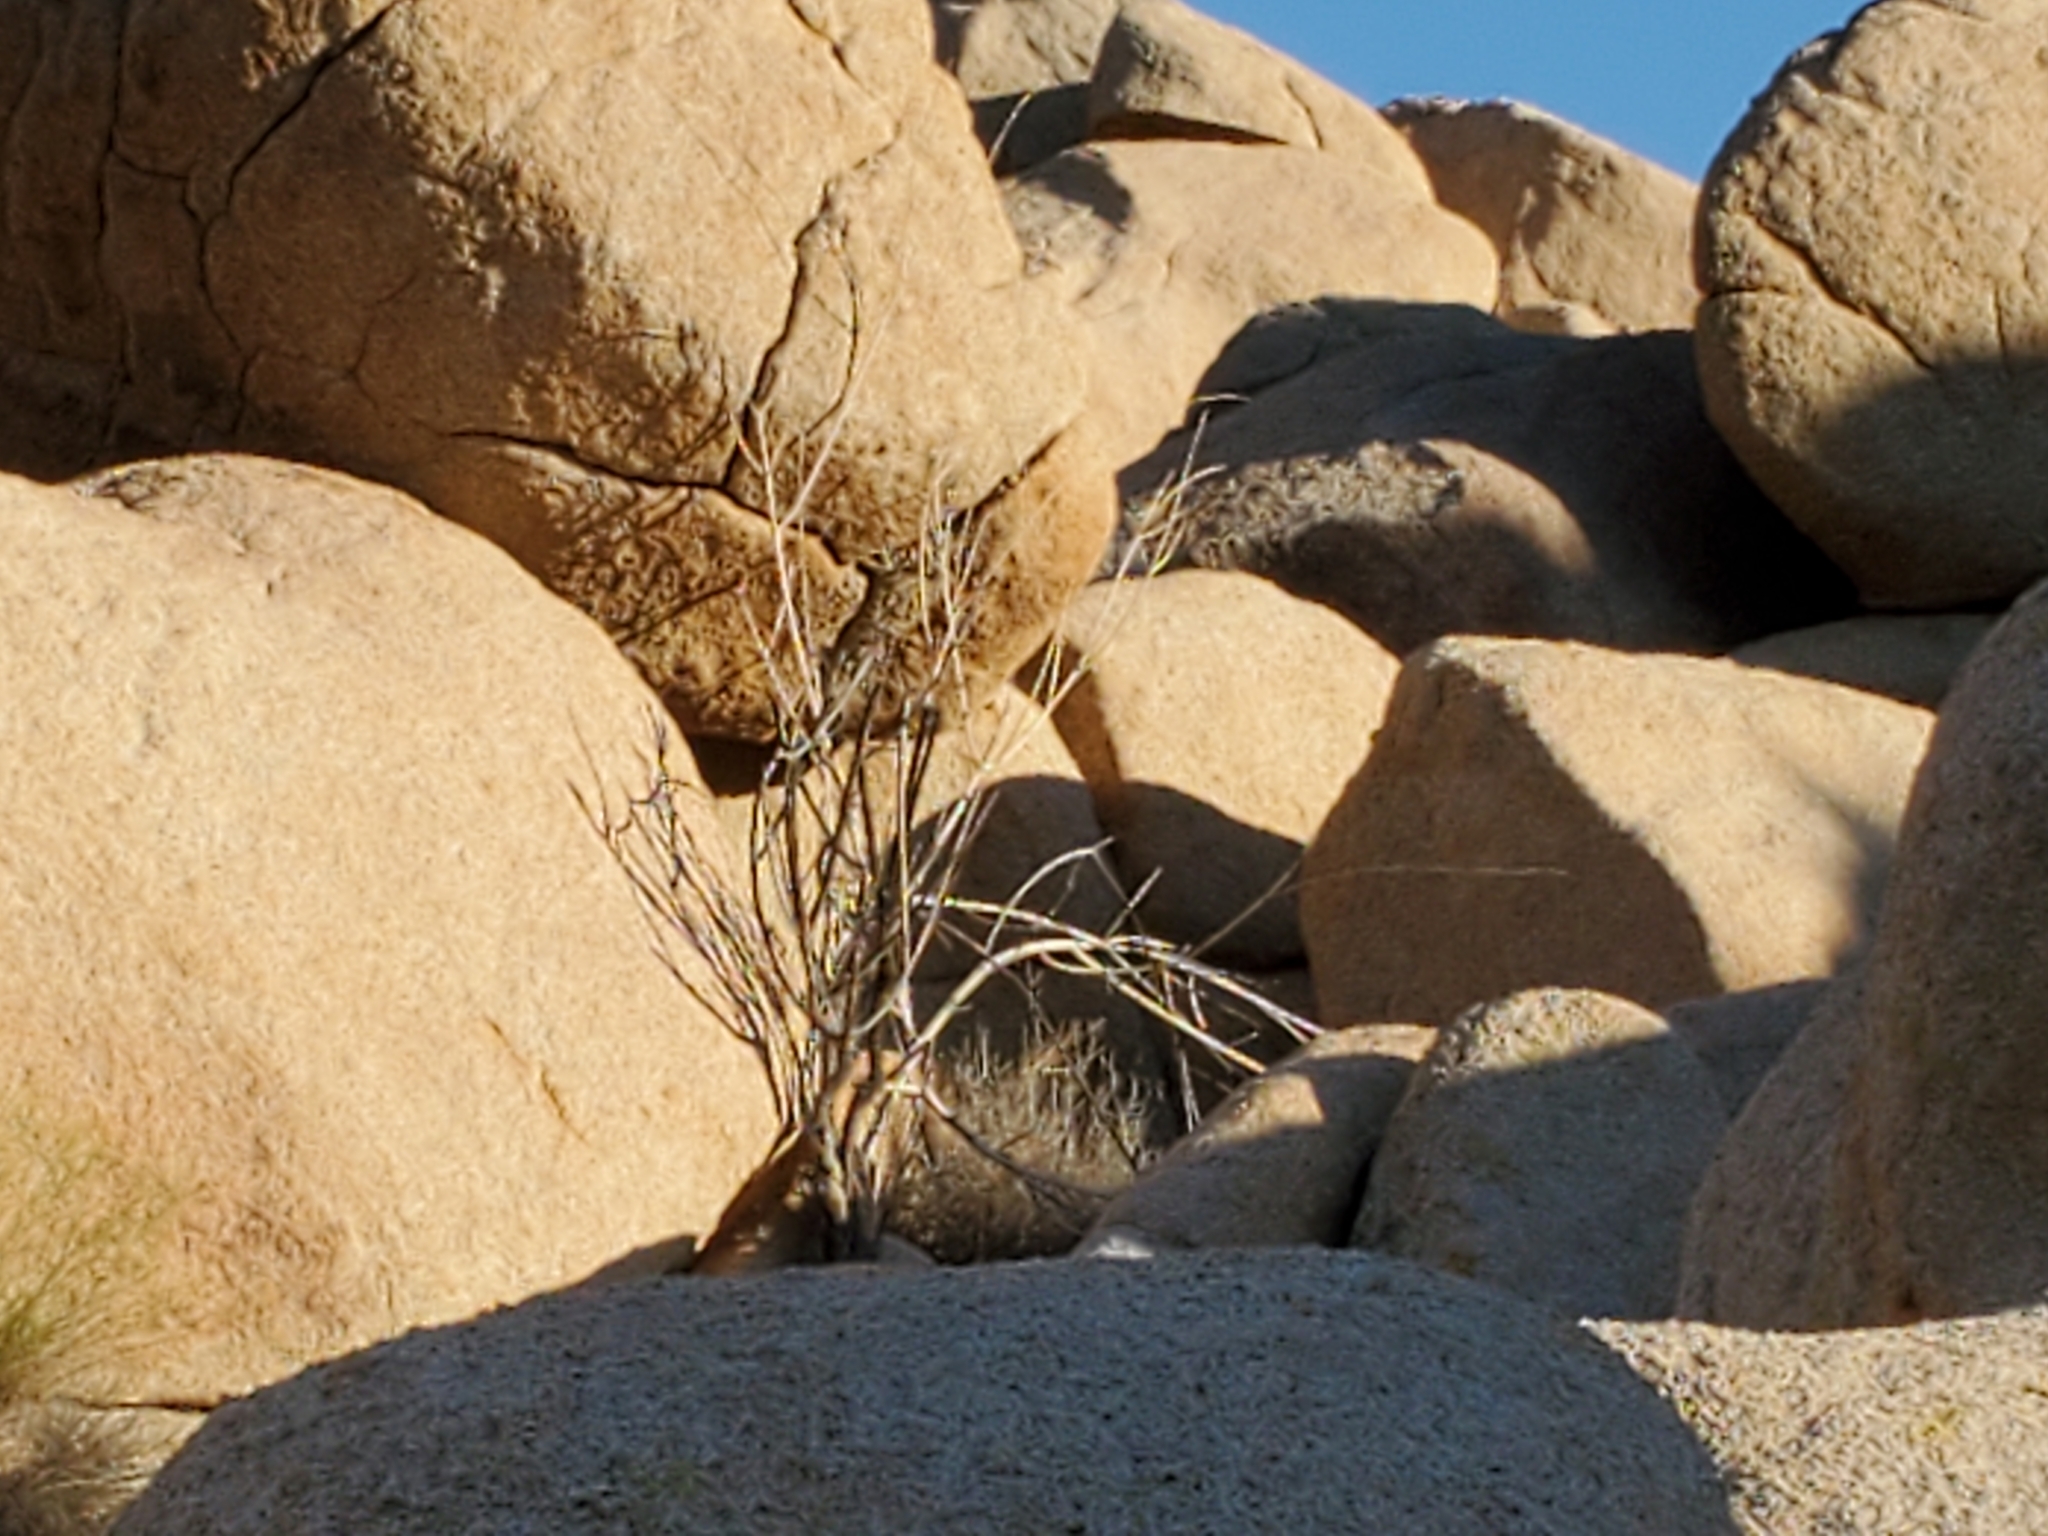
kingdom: Plantae
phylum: Tracheophyta
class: Magnoliopsida
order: Gentianales
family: Apocynaceae
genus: Asclepias
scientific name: Asclepias albicans
